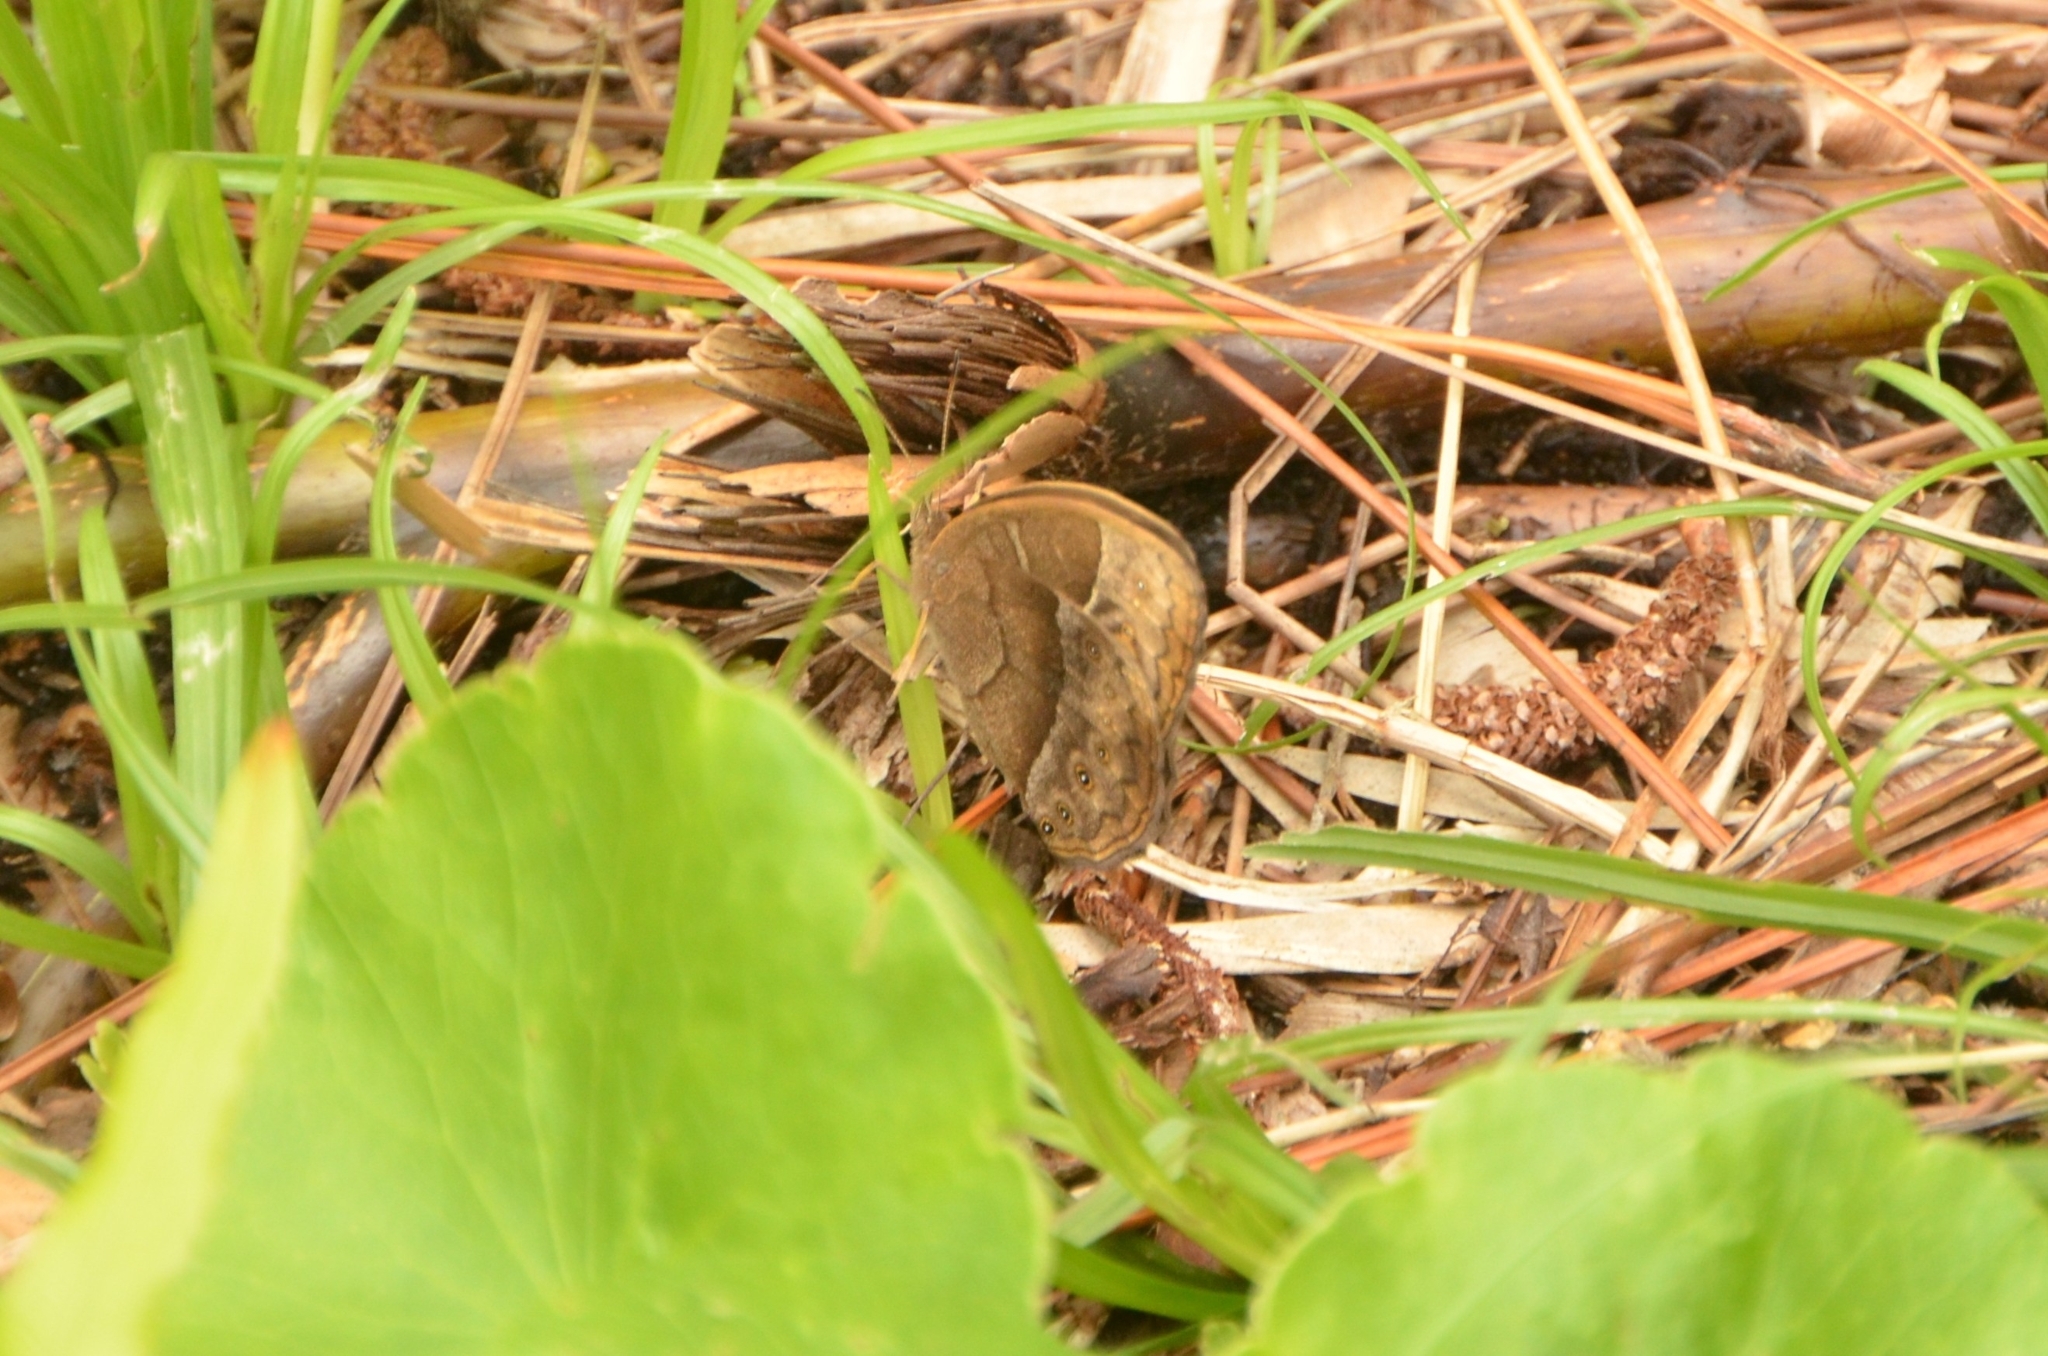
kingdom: Animalia
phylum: Arthropoda
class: Insecta
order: Lepidoptera
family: Nymphalidae
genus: Mycalesis
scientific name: Mycalesis rhacotis
